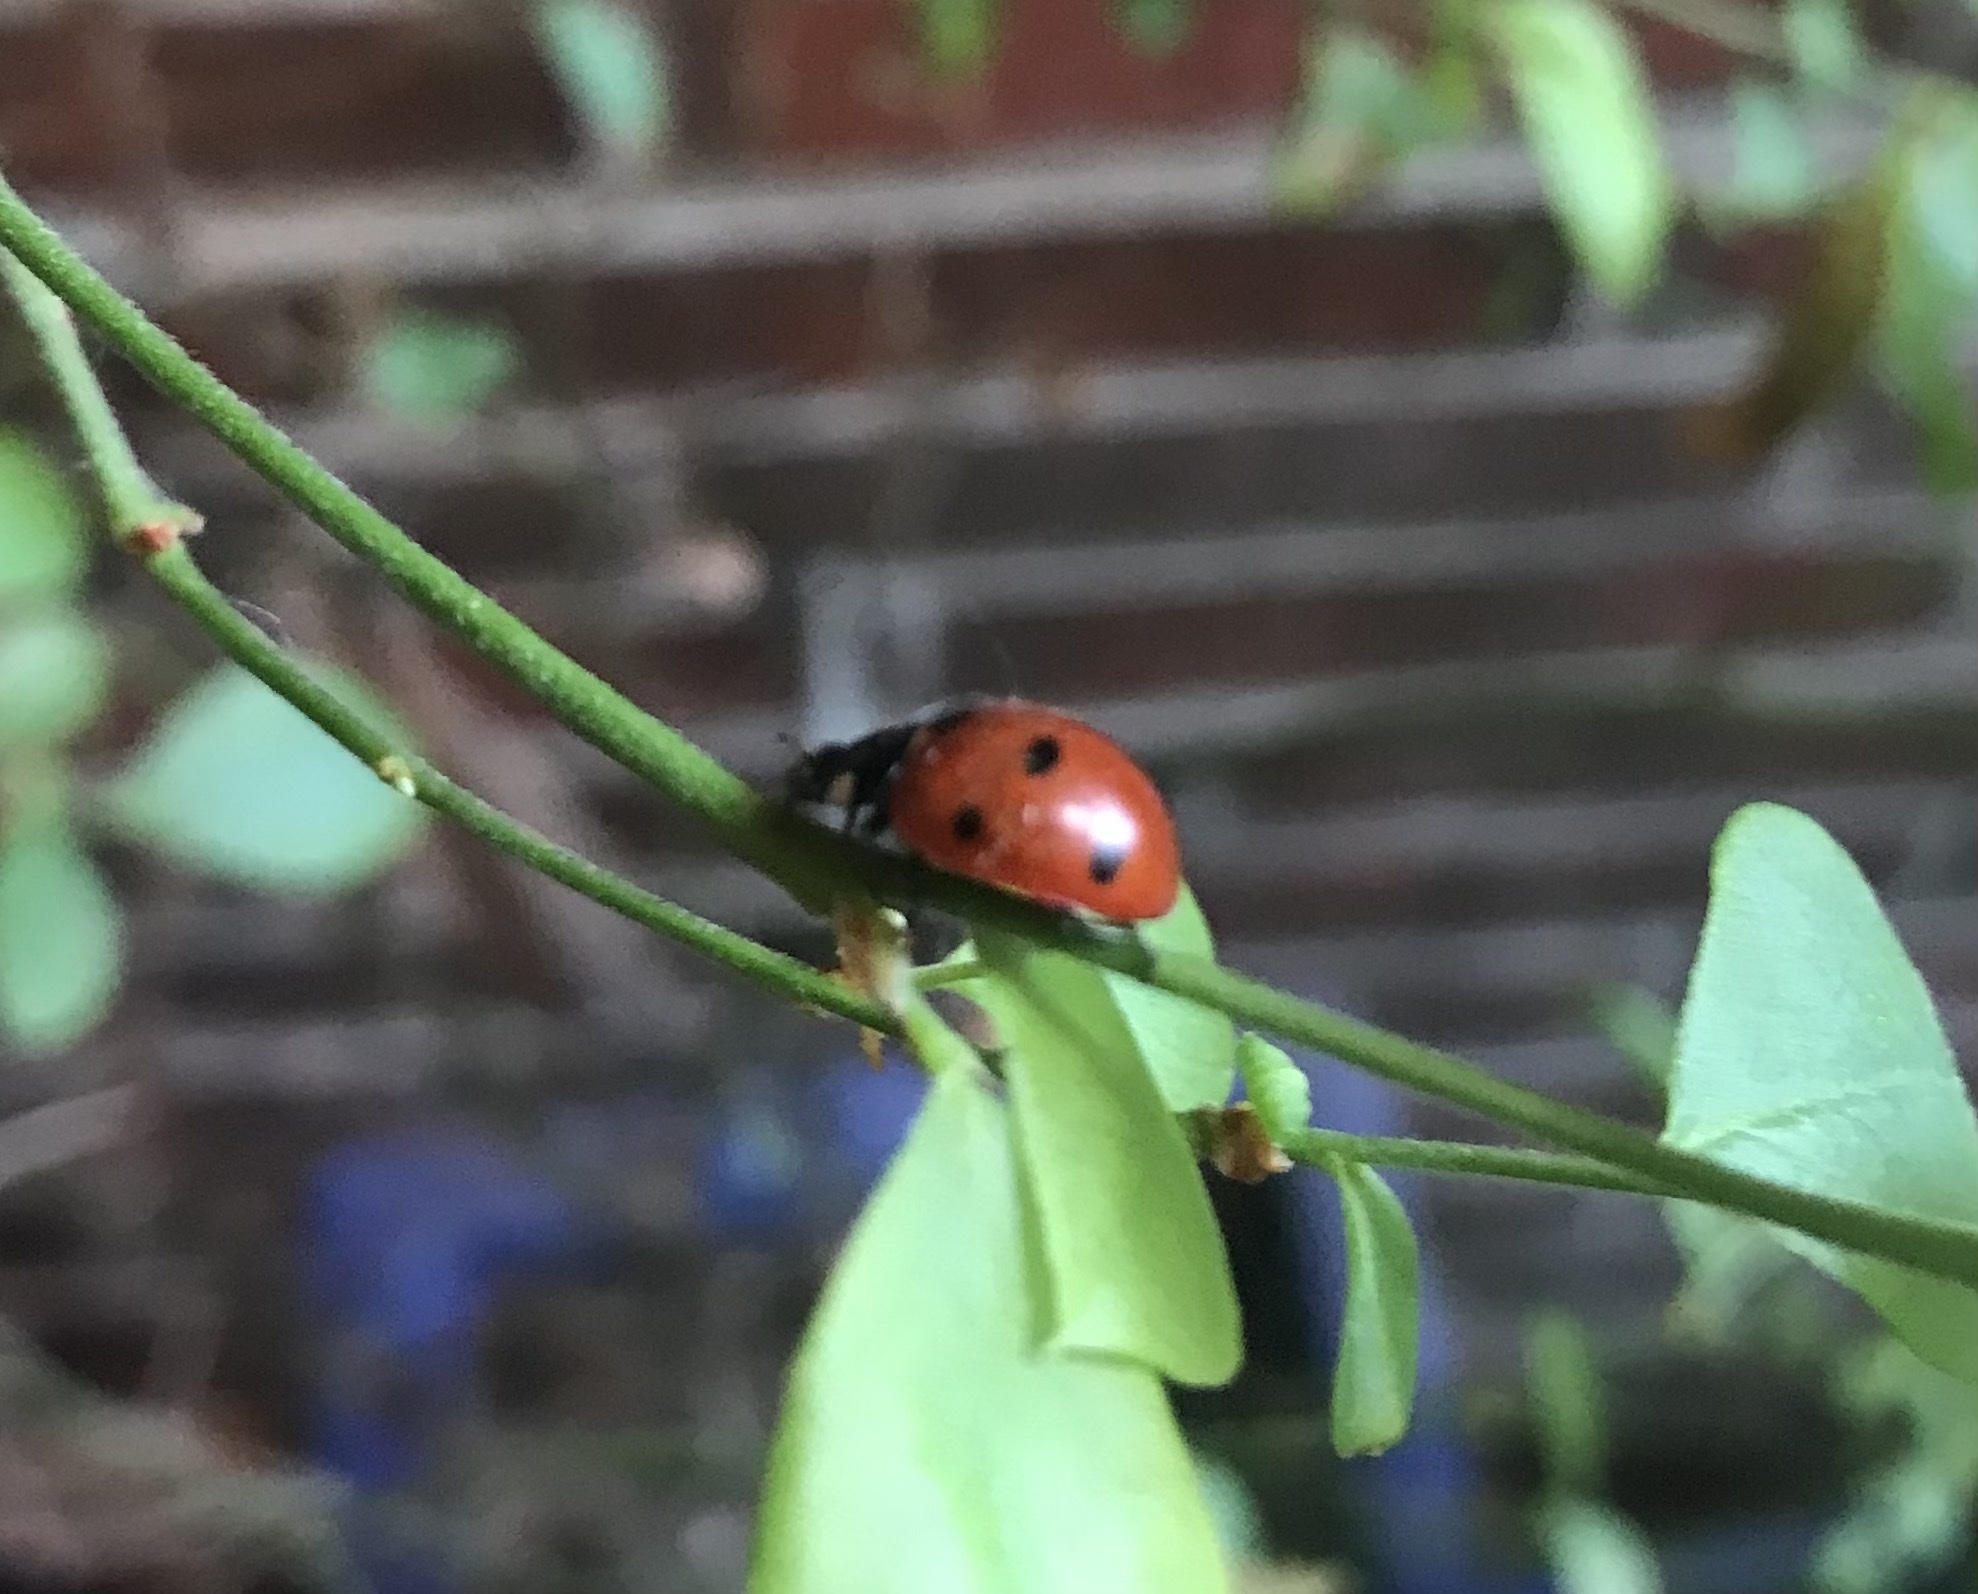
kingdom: Animalia
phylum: Arthropoda
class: Insecta
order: Coleoptera
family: Coccinellidae
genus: Coccinella
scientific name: Coccinella septempunctata
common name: Sevenspotted lady beetle
